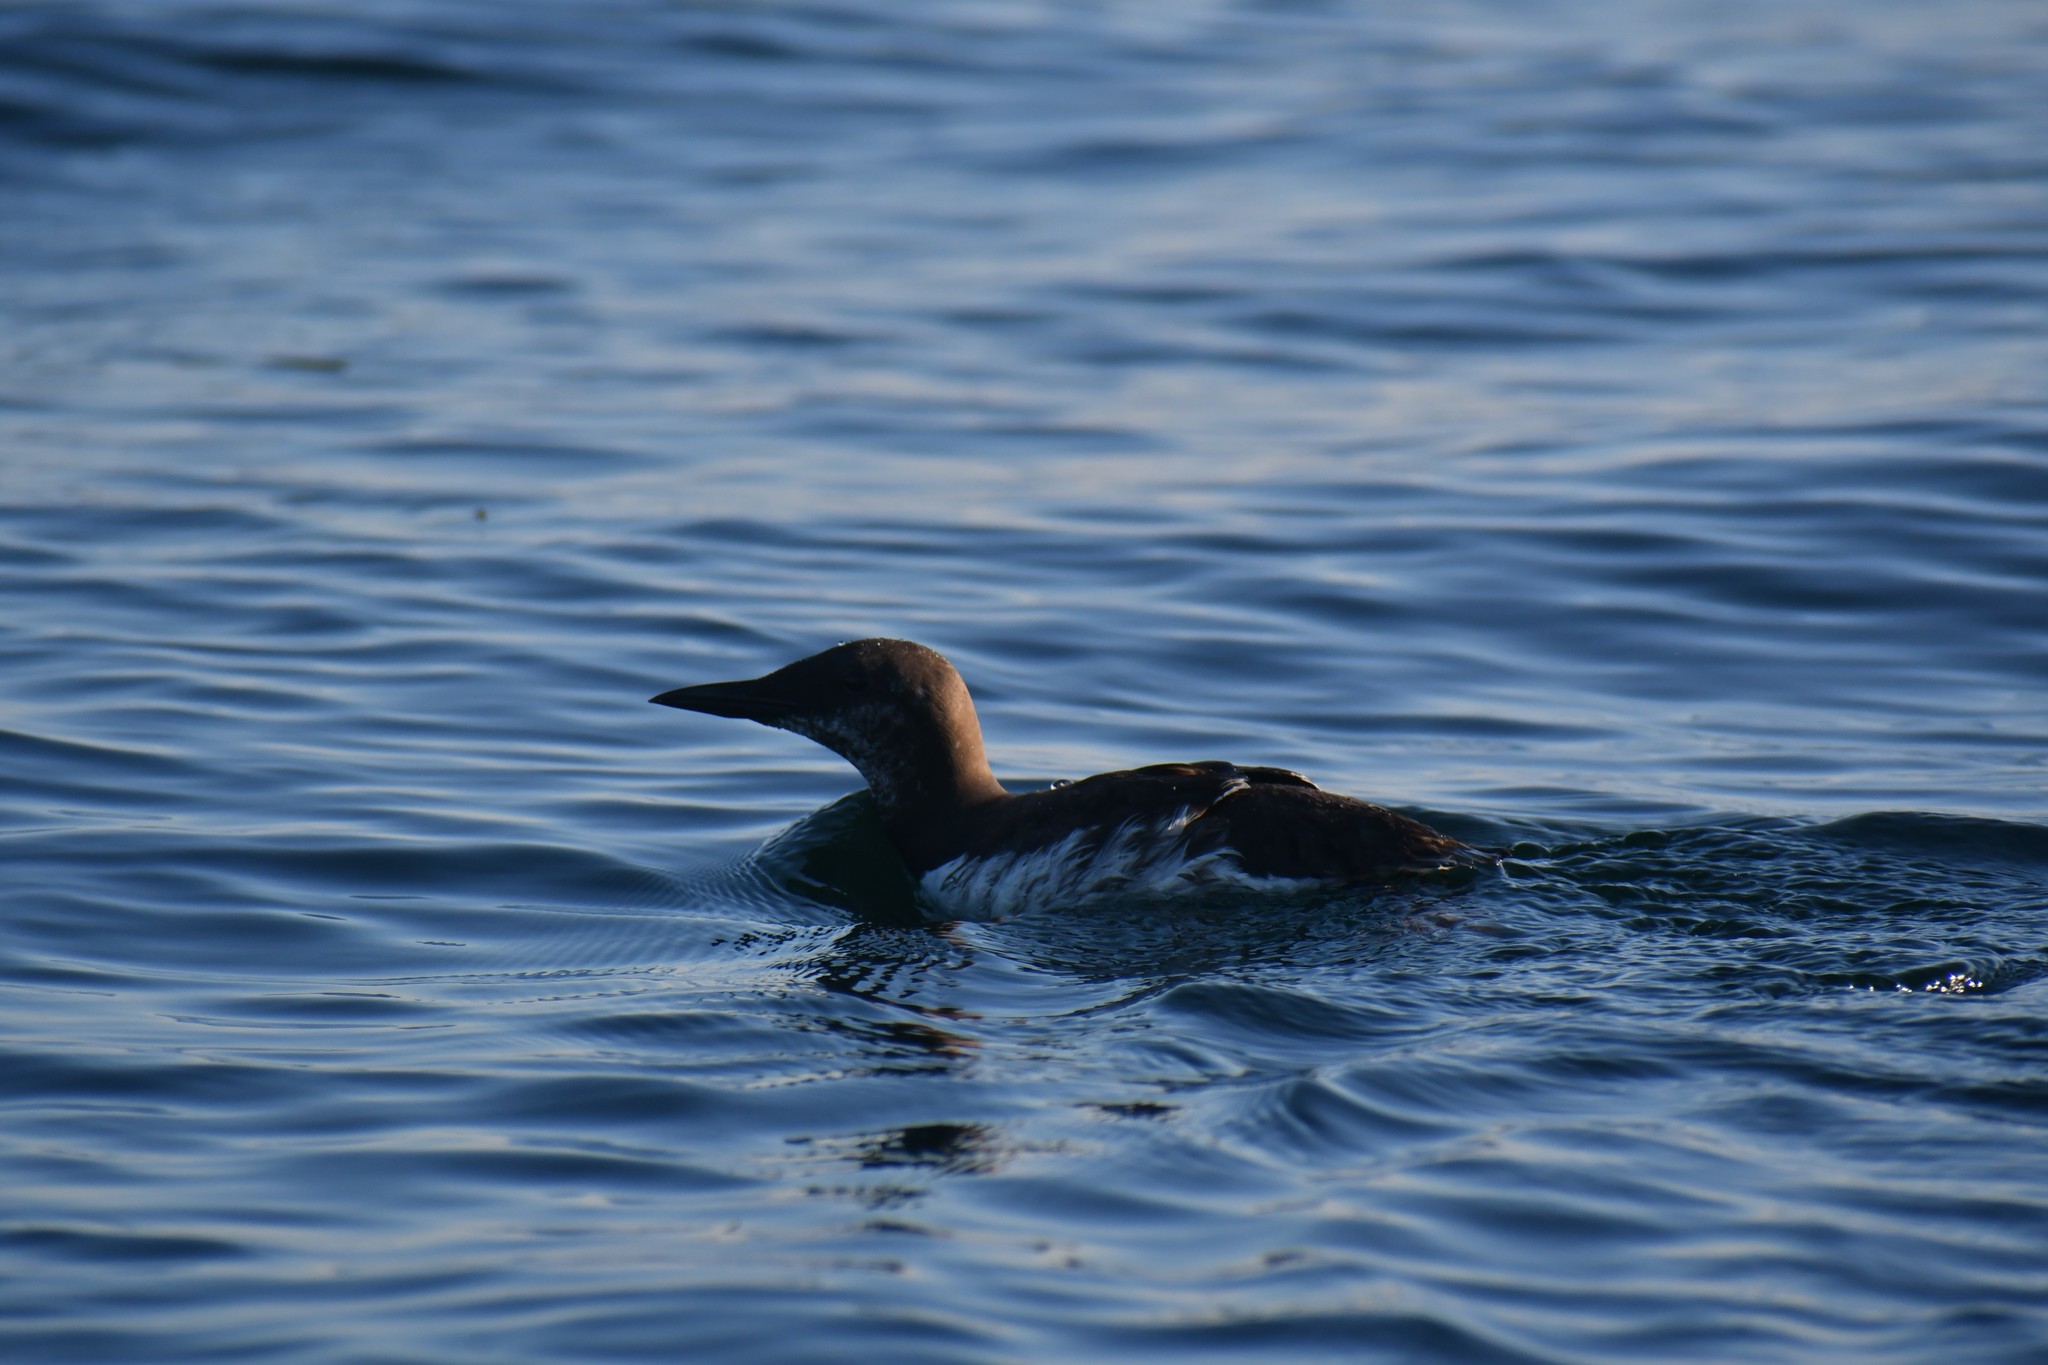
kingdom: Animalia
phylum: Chordata
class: Aves
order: Charadriiformes
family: Alcidae
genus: Uria
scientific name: Uria aalge
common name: Common murre
